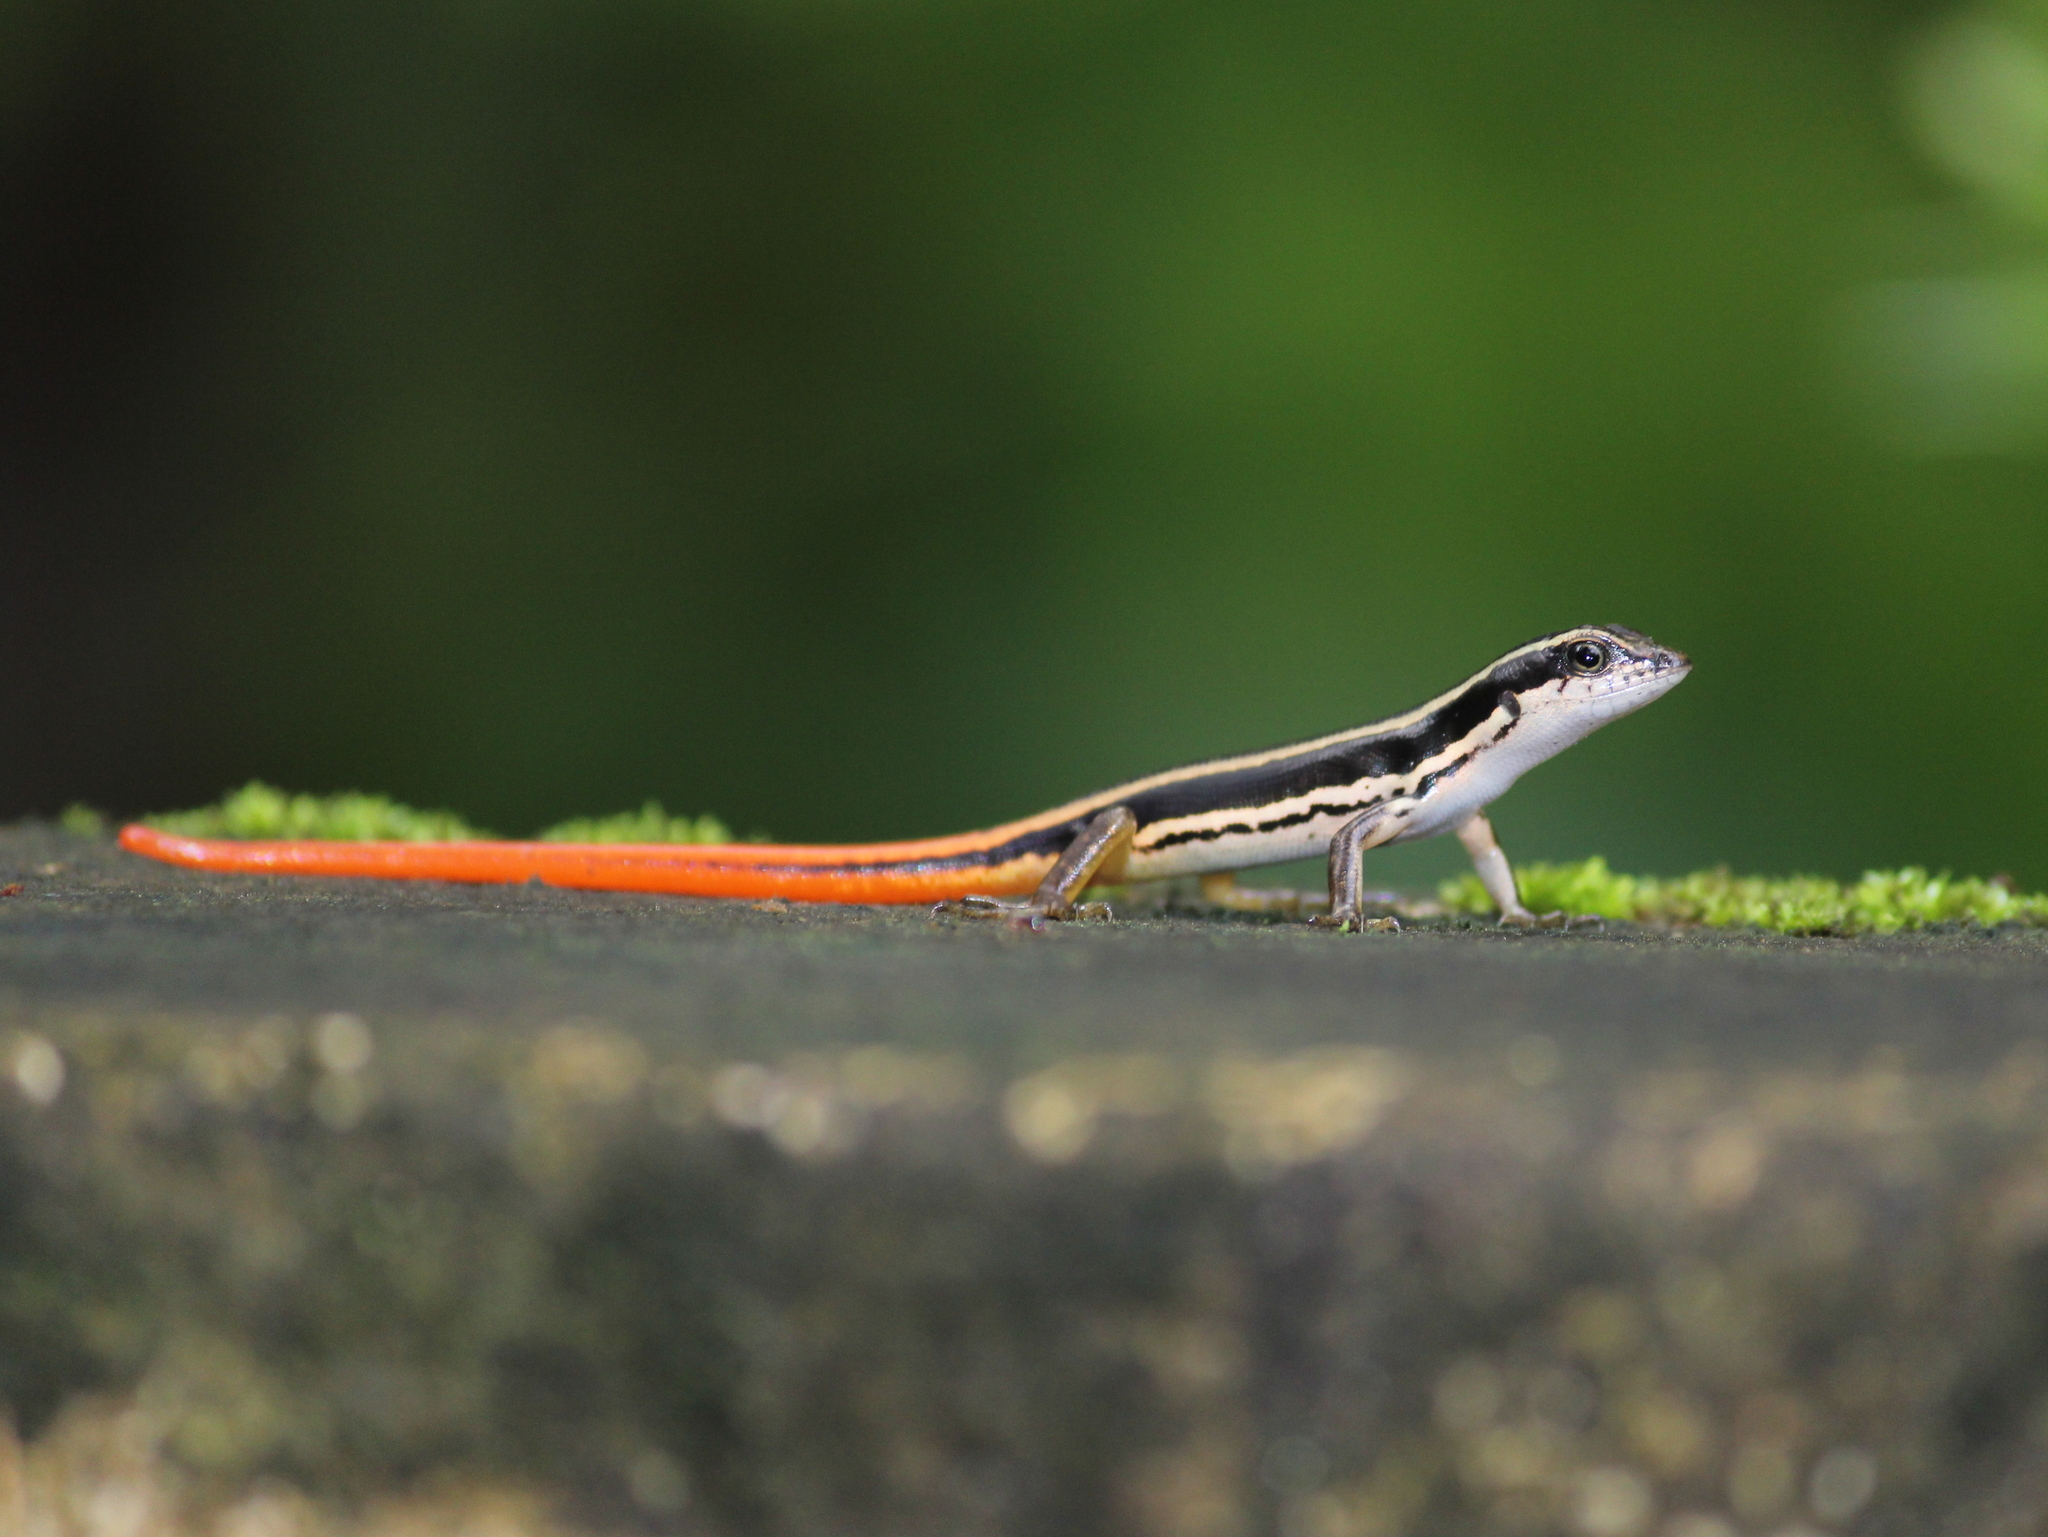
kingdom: Animalia
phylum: Chordata
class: Squamata
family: Scincidae
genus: Sphenomorphus
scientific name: Sphenomorphus dussumieri
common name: Dussumier's forest skink
